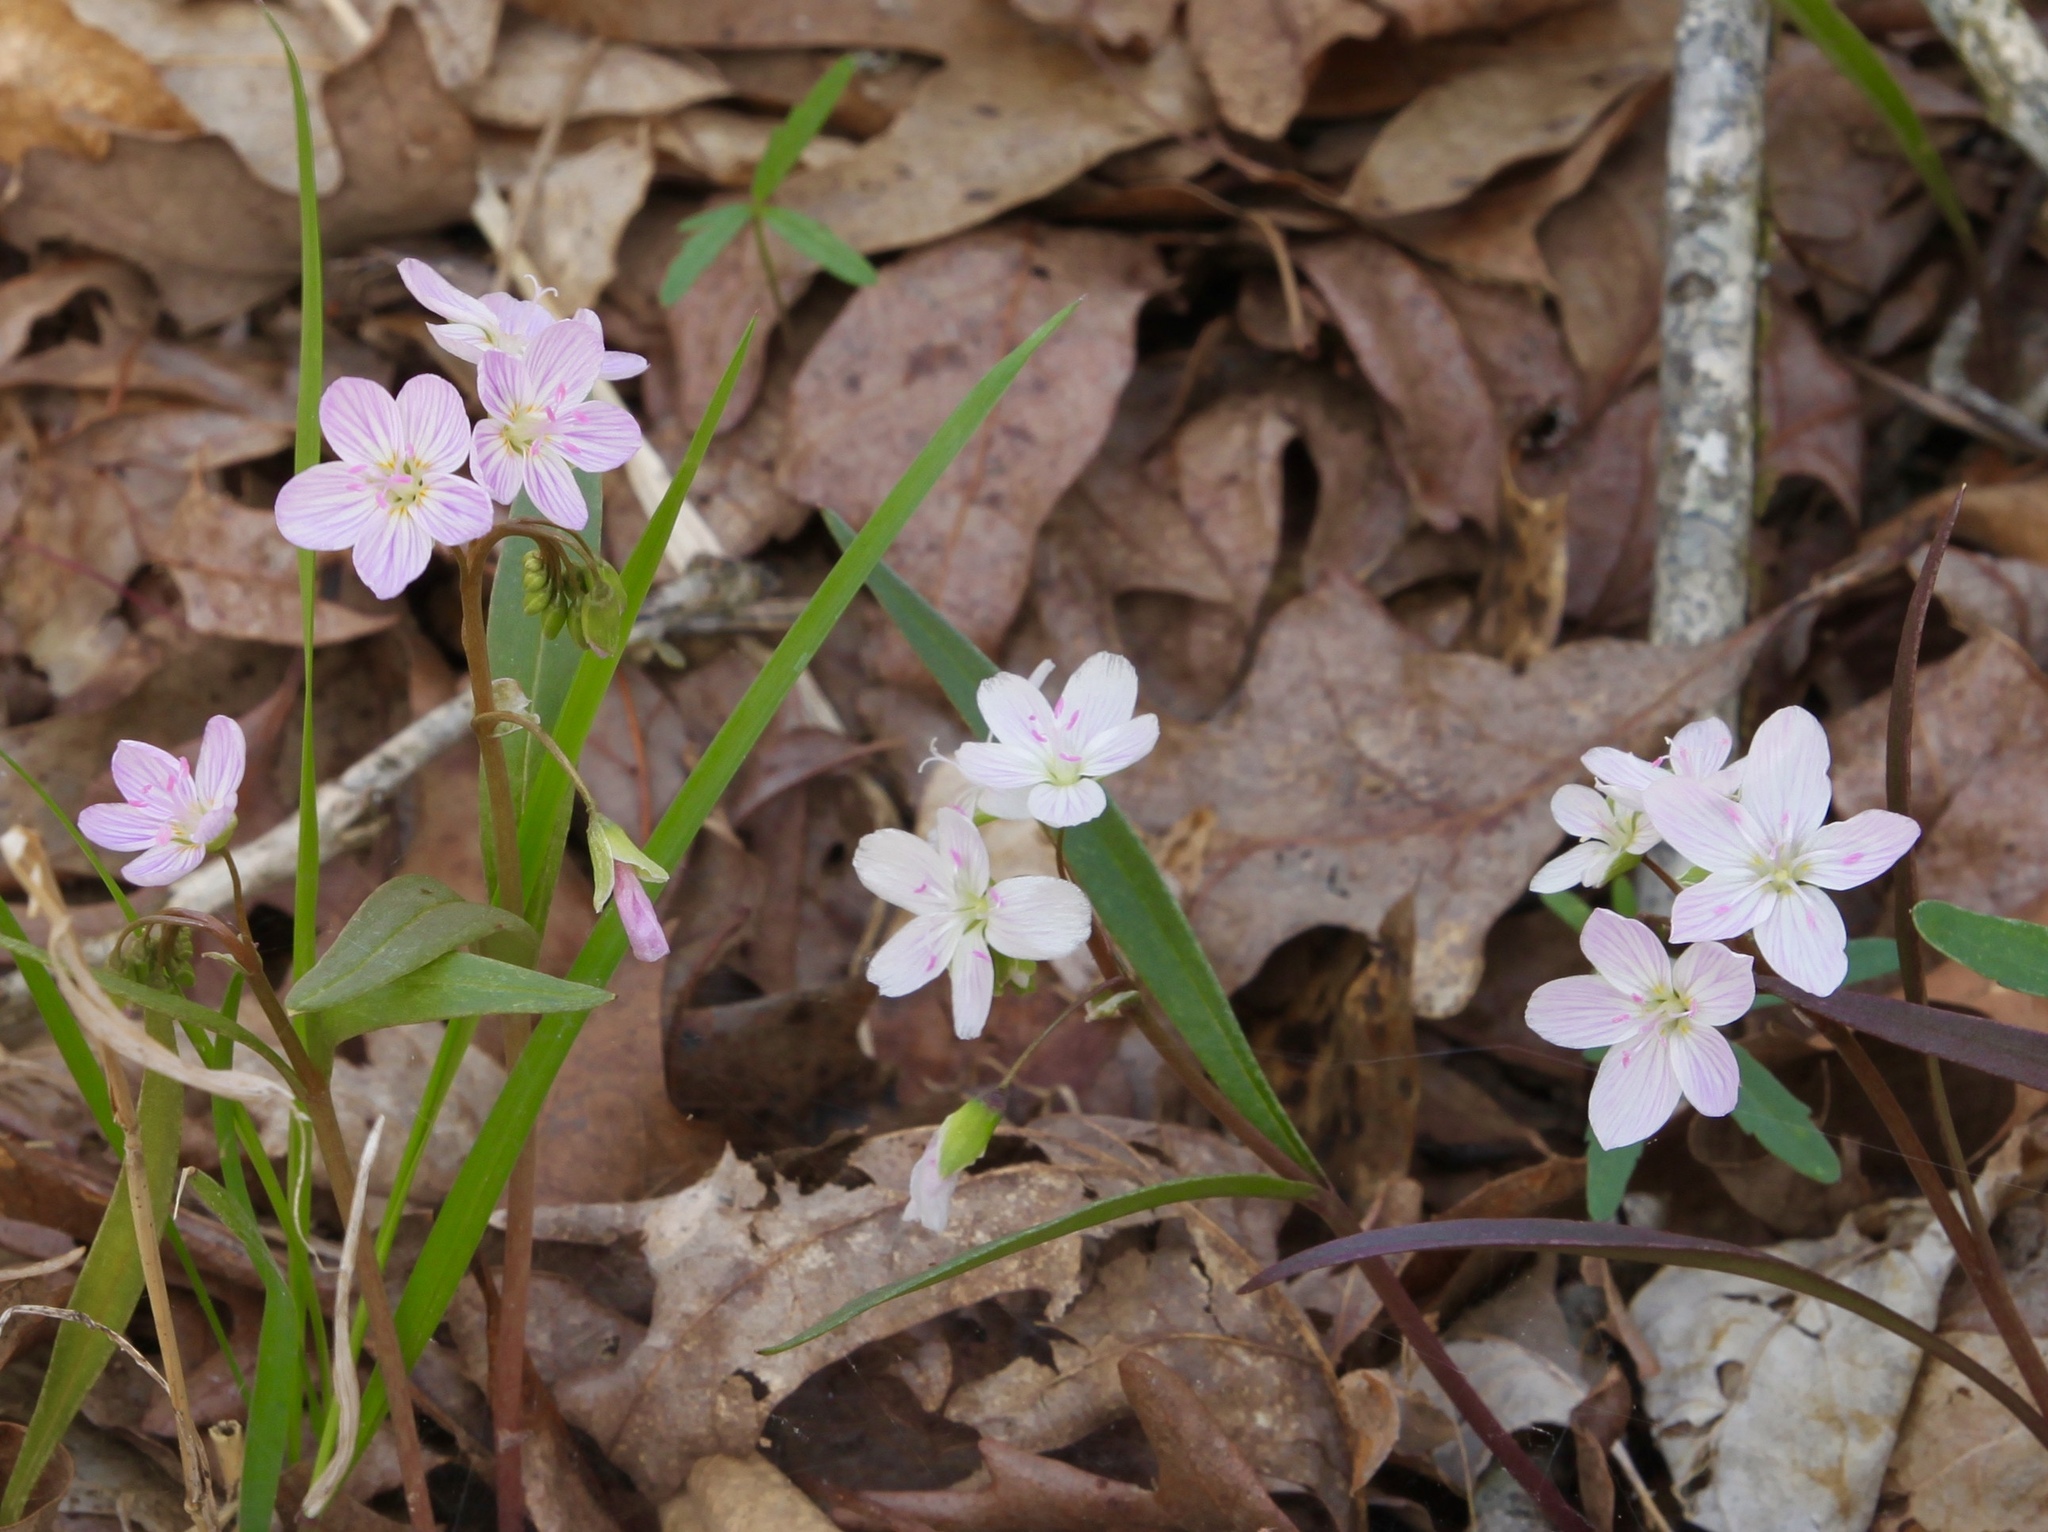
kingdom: Plantae
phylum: Tracheophyta
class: Magnoliopsida
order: Caryophyllales
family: Montiaceae
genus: Claytonia
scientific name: Claytonia virginica
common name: Virginia springbeauty
